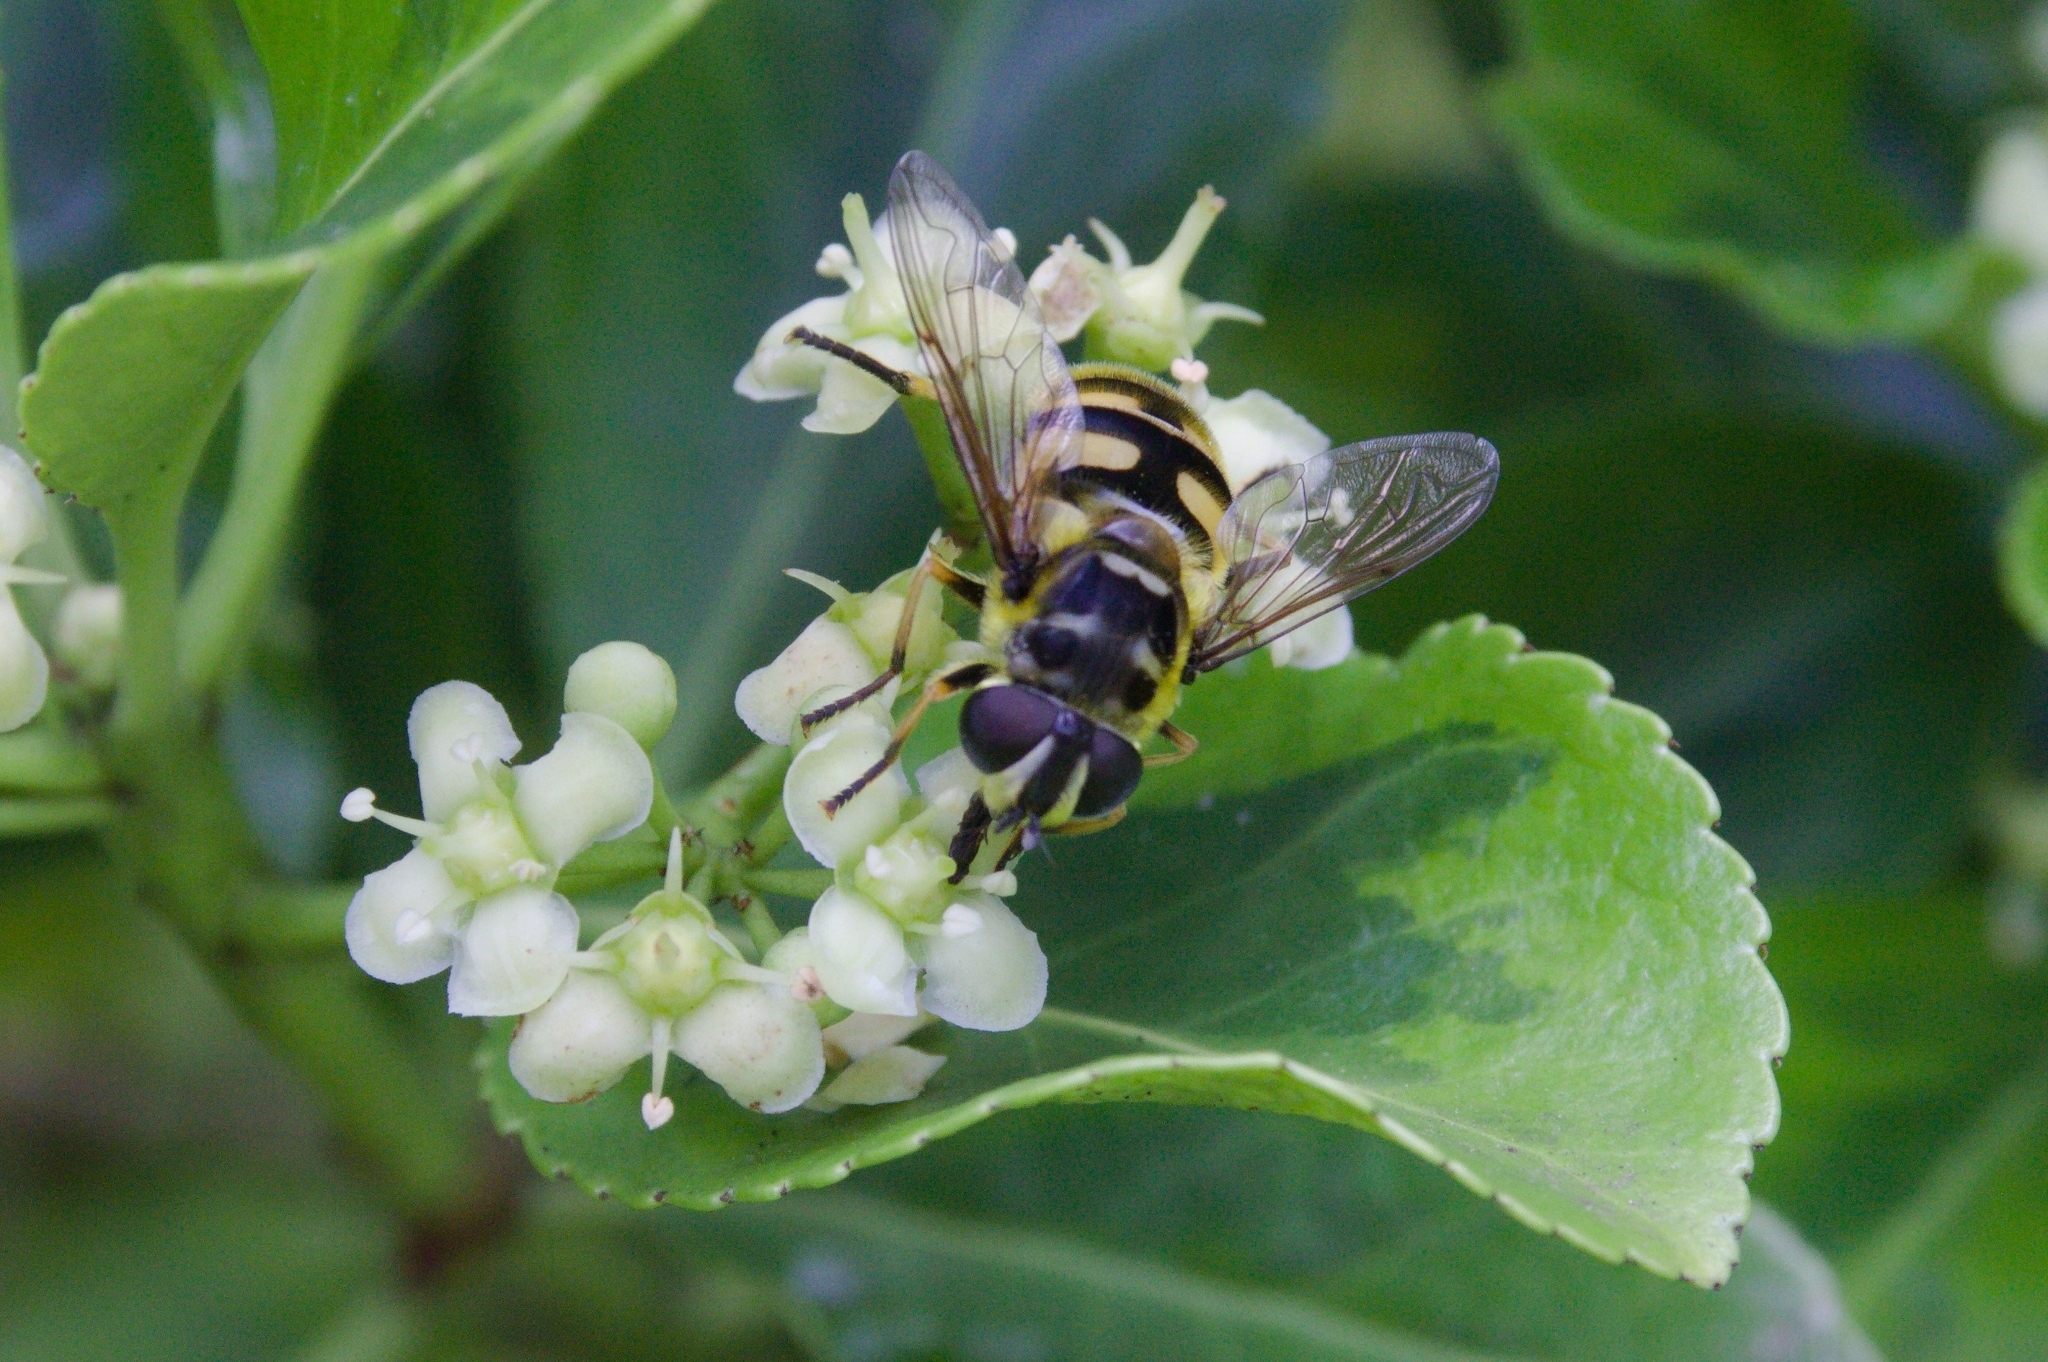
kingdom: Animalia
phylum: Arthropoda
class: Insecta
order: Diptera
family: Syrphidae
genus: Myathropa
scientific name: Myathropa florea
